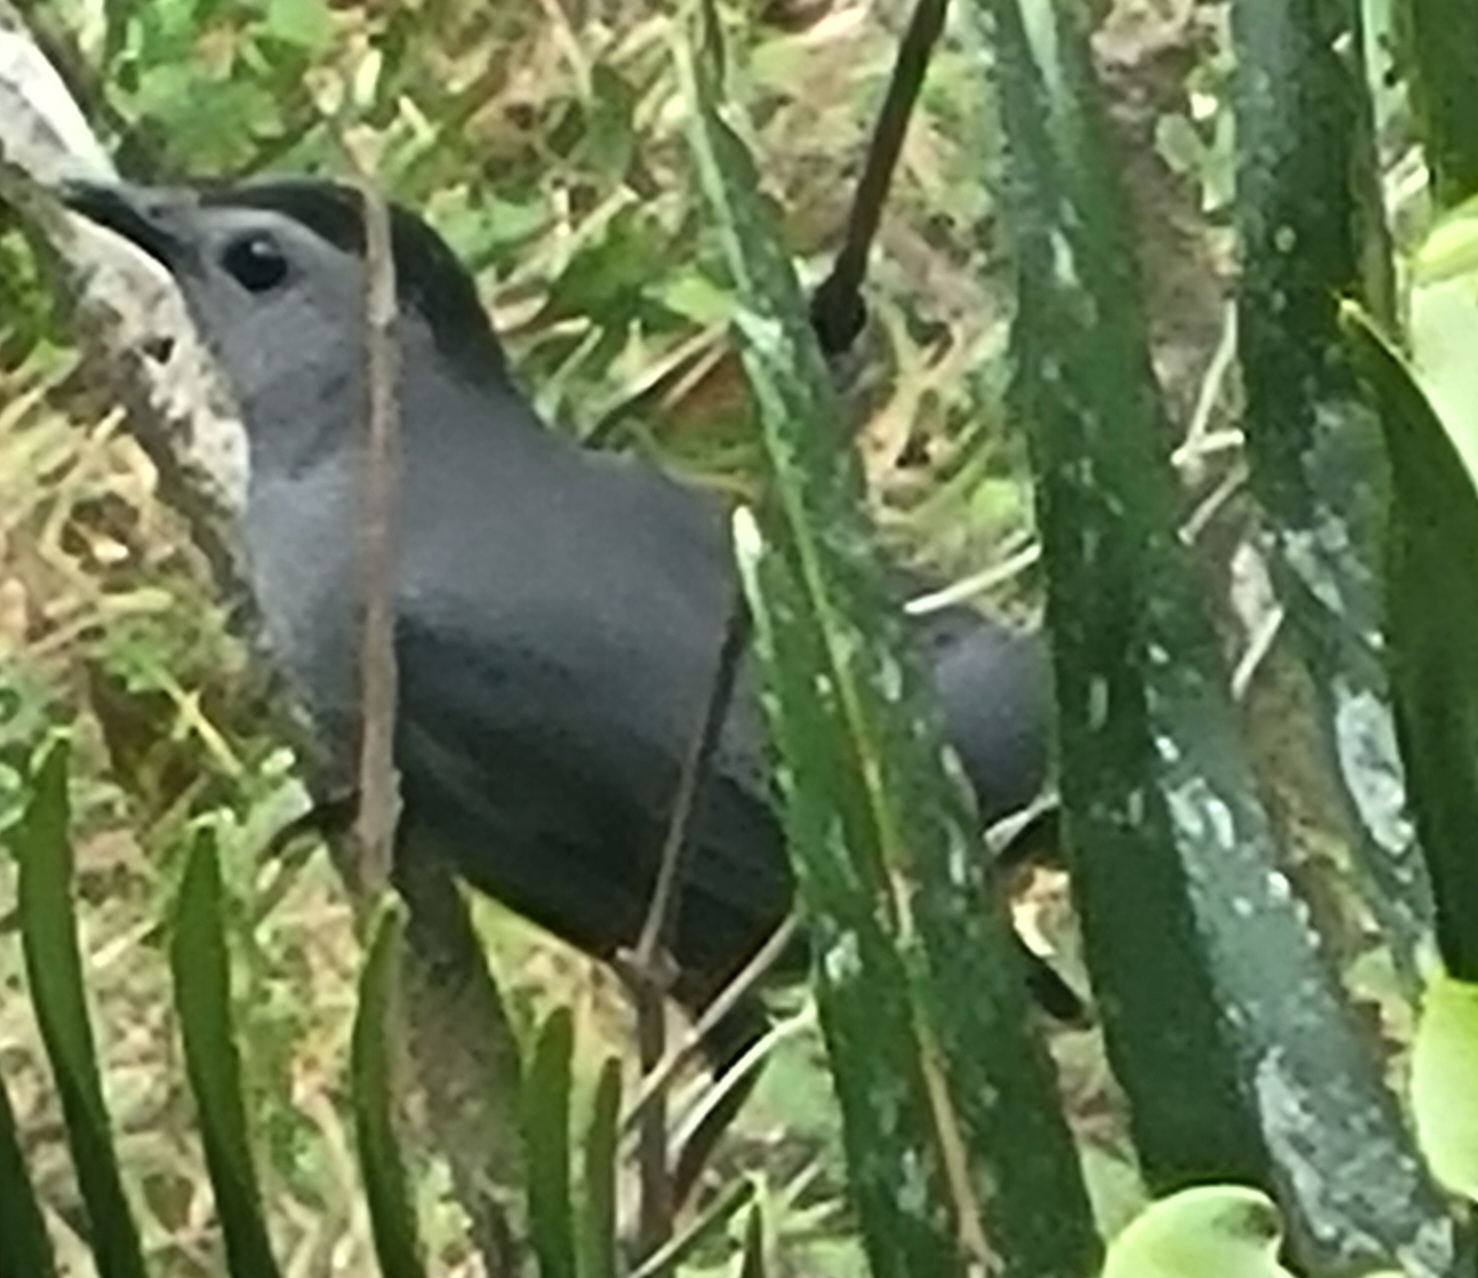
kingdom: Animalia
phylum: Chordata
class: Aves
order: Passeriformes
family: Mimidae
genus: Dumetella
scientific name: Dumetella carolinensis
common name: Gray catbird
